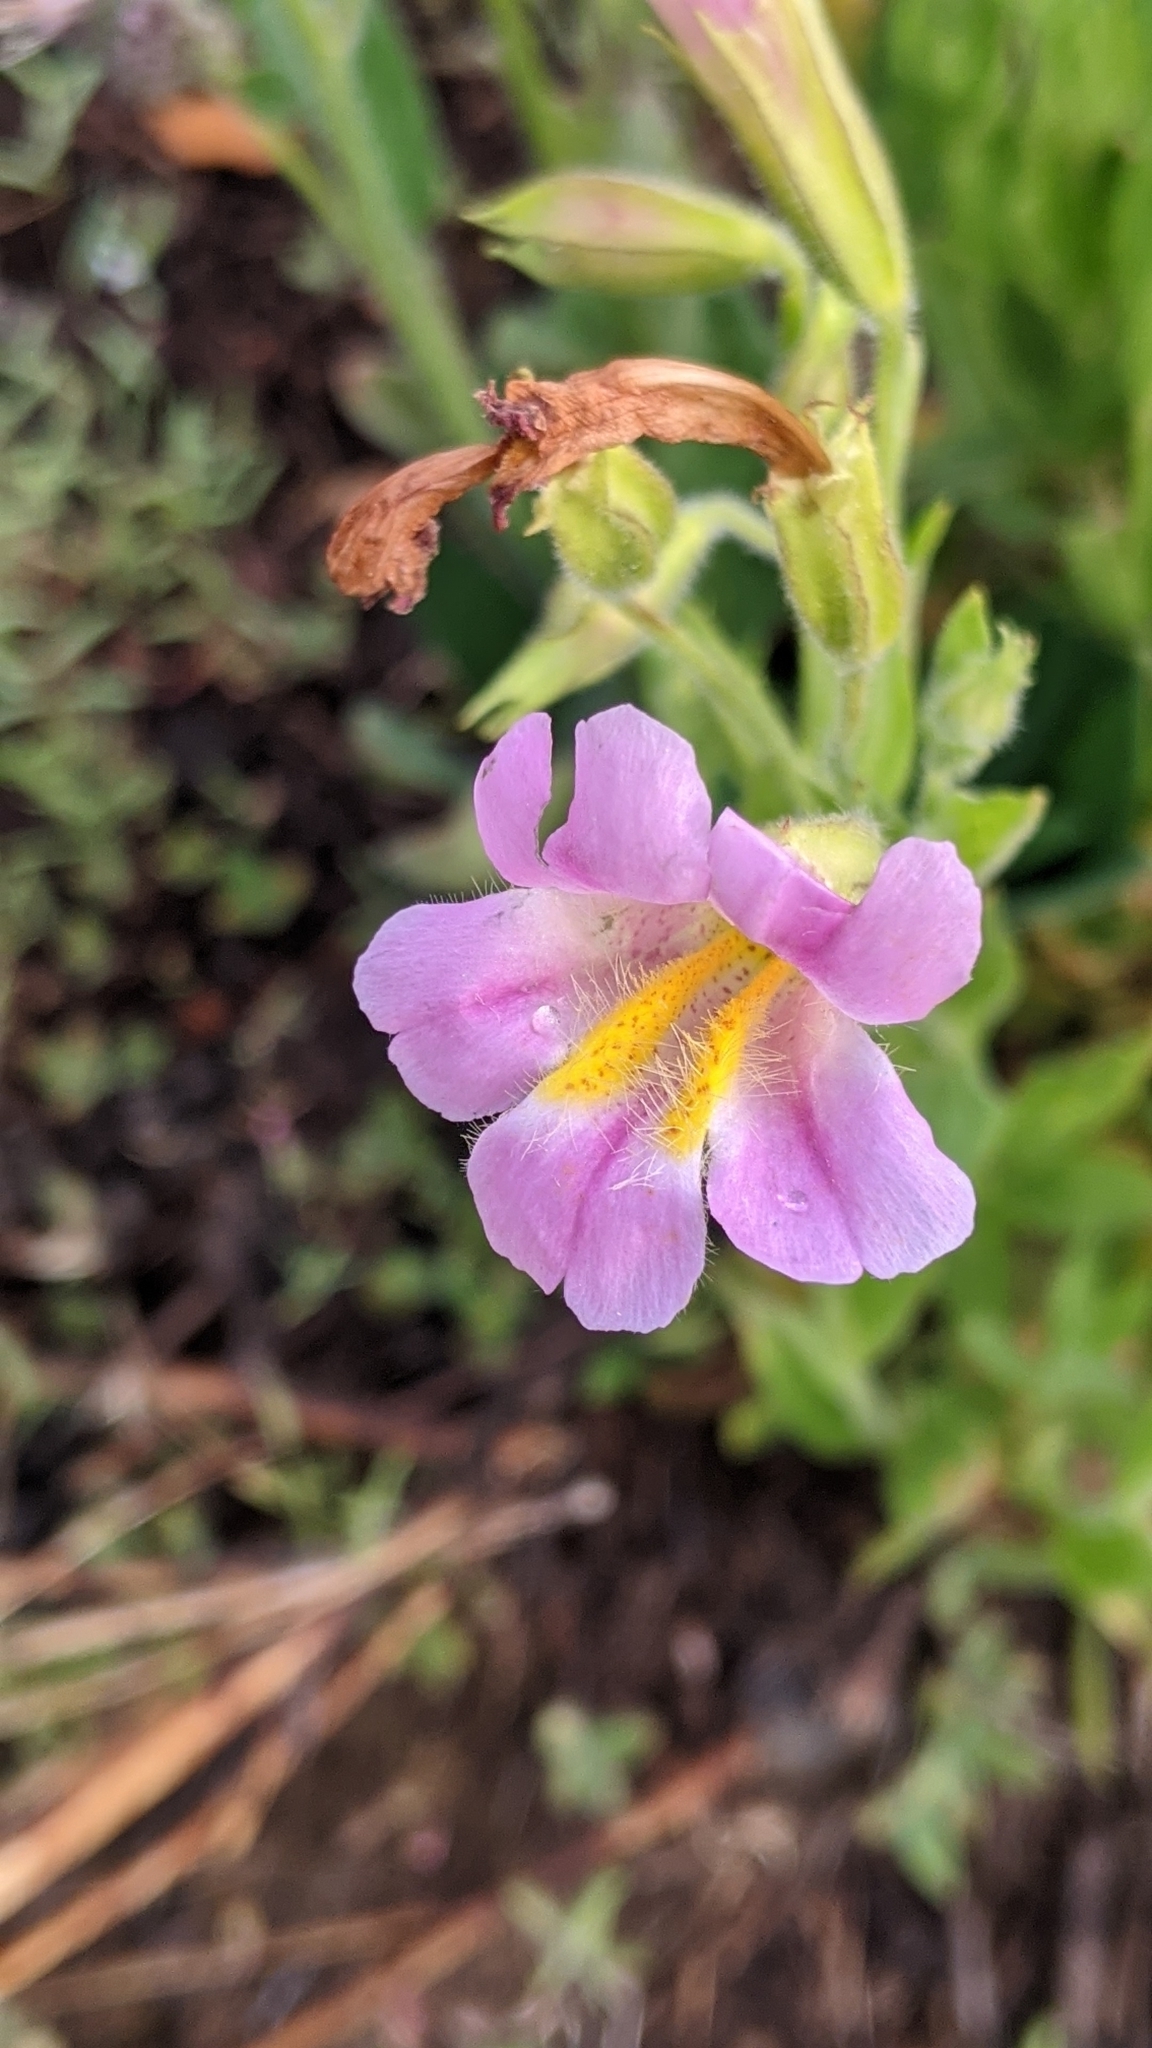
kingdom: Plantae
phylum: Tracheophyta
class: Magnoliopsida
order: Lamiales
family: Phrymaceae
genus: Erythranthe
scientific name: Erythranthe erubescens
